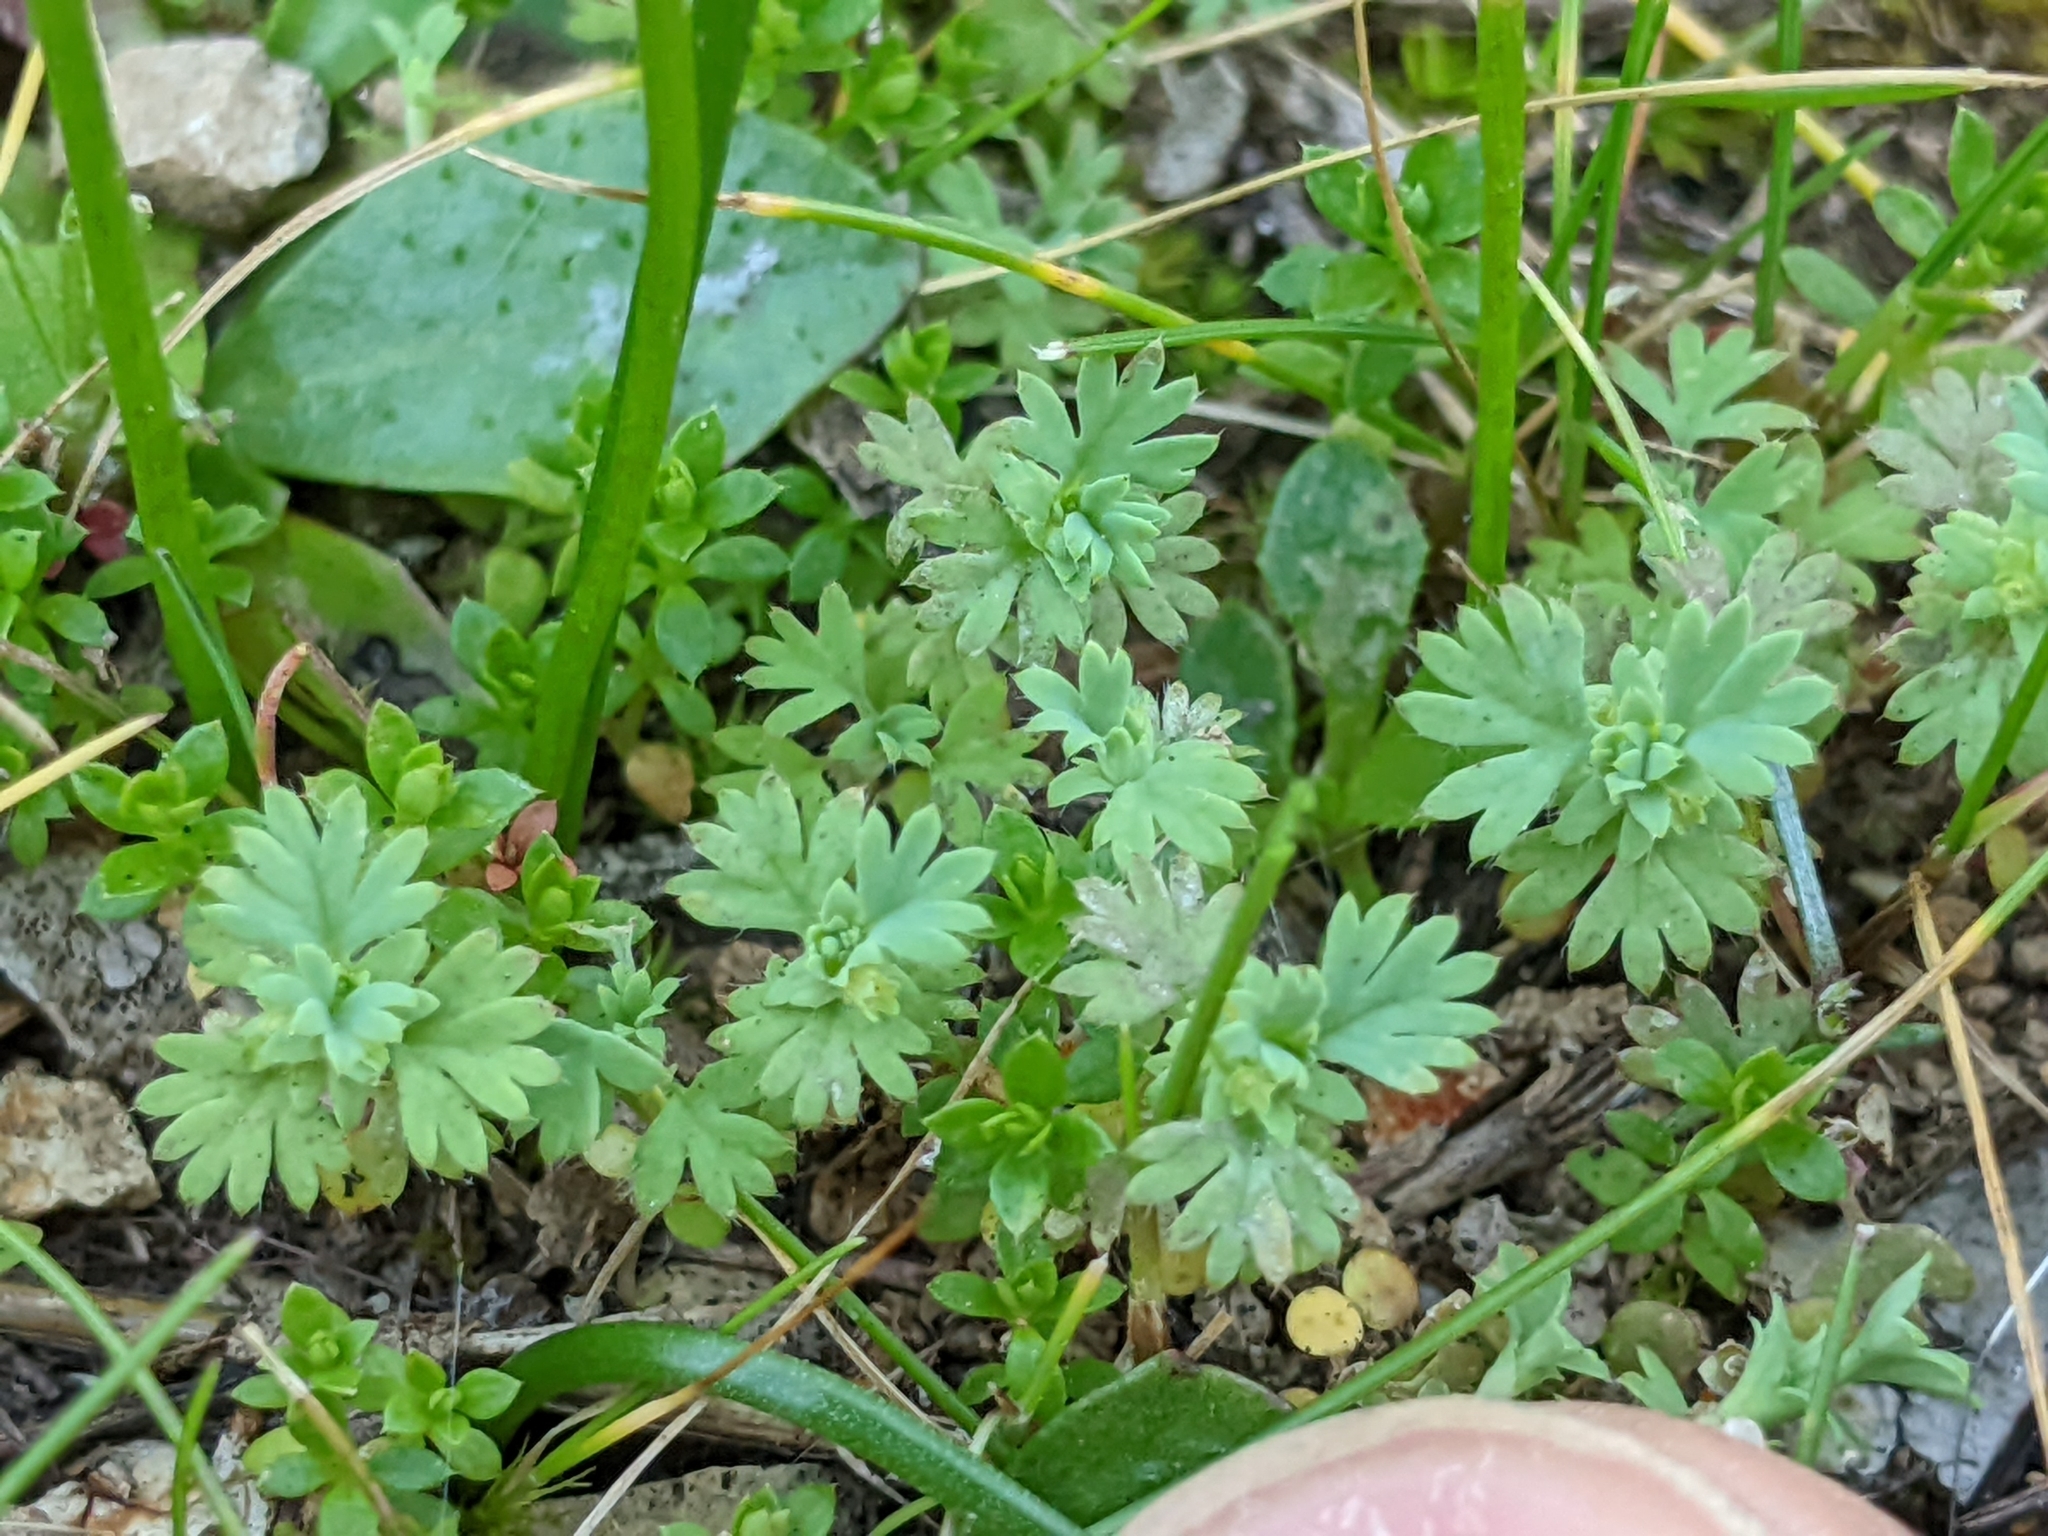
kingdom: Plantae
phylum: Tracheophyta
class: Magnoliopsida
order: Rosales
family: Rosaceae
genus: Aphanes
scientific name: Aphanes arvensis
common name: Parsley-piert
